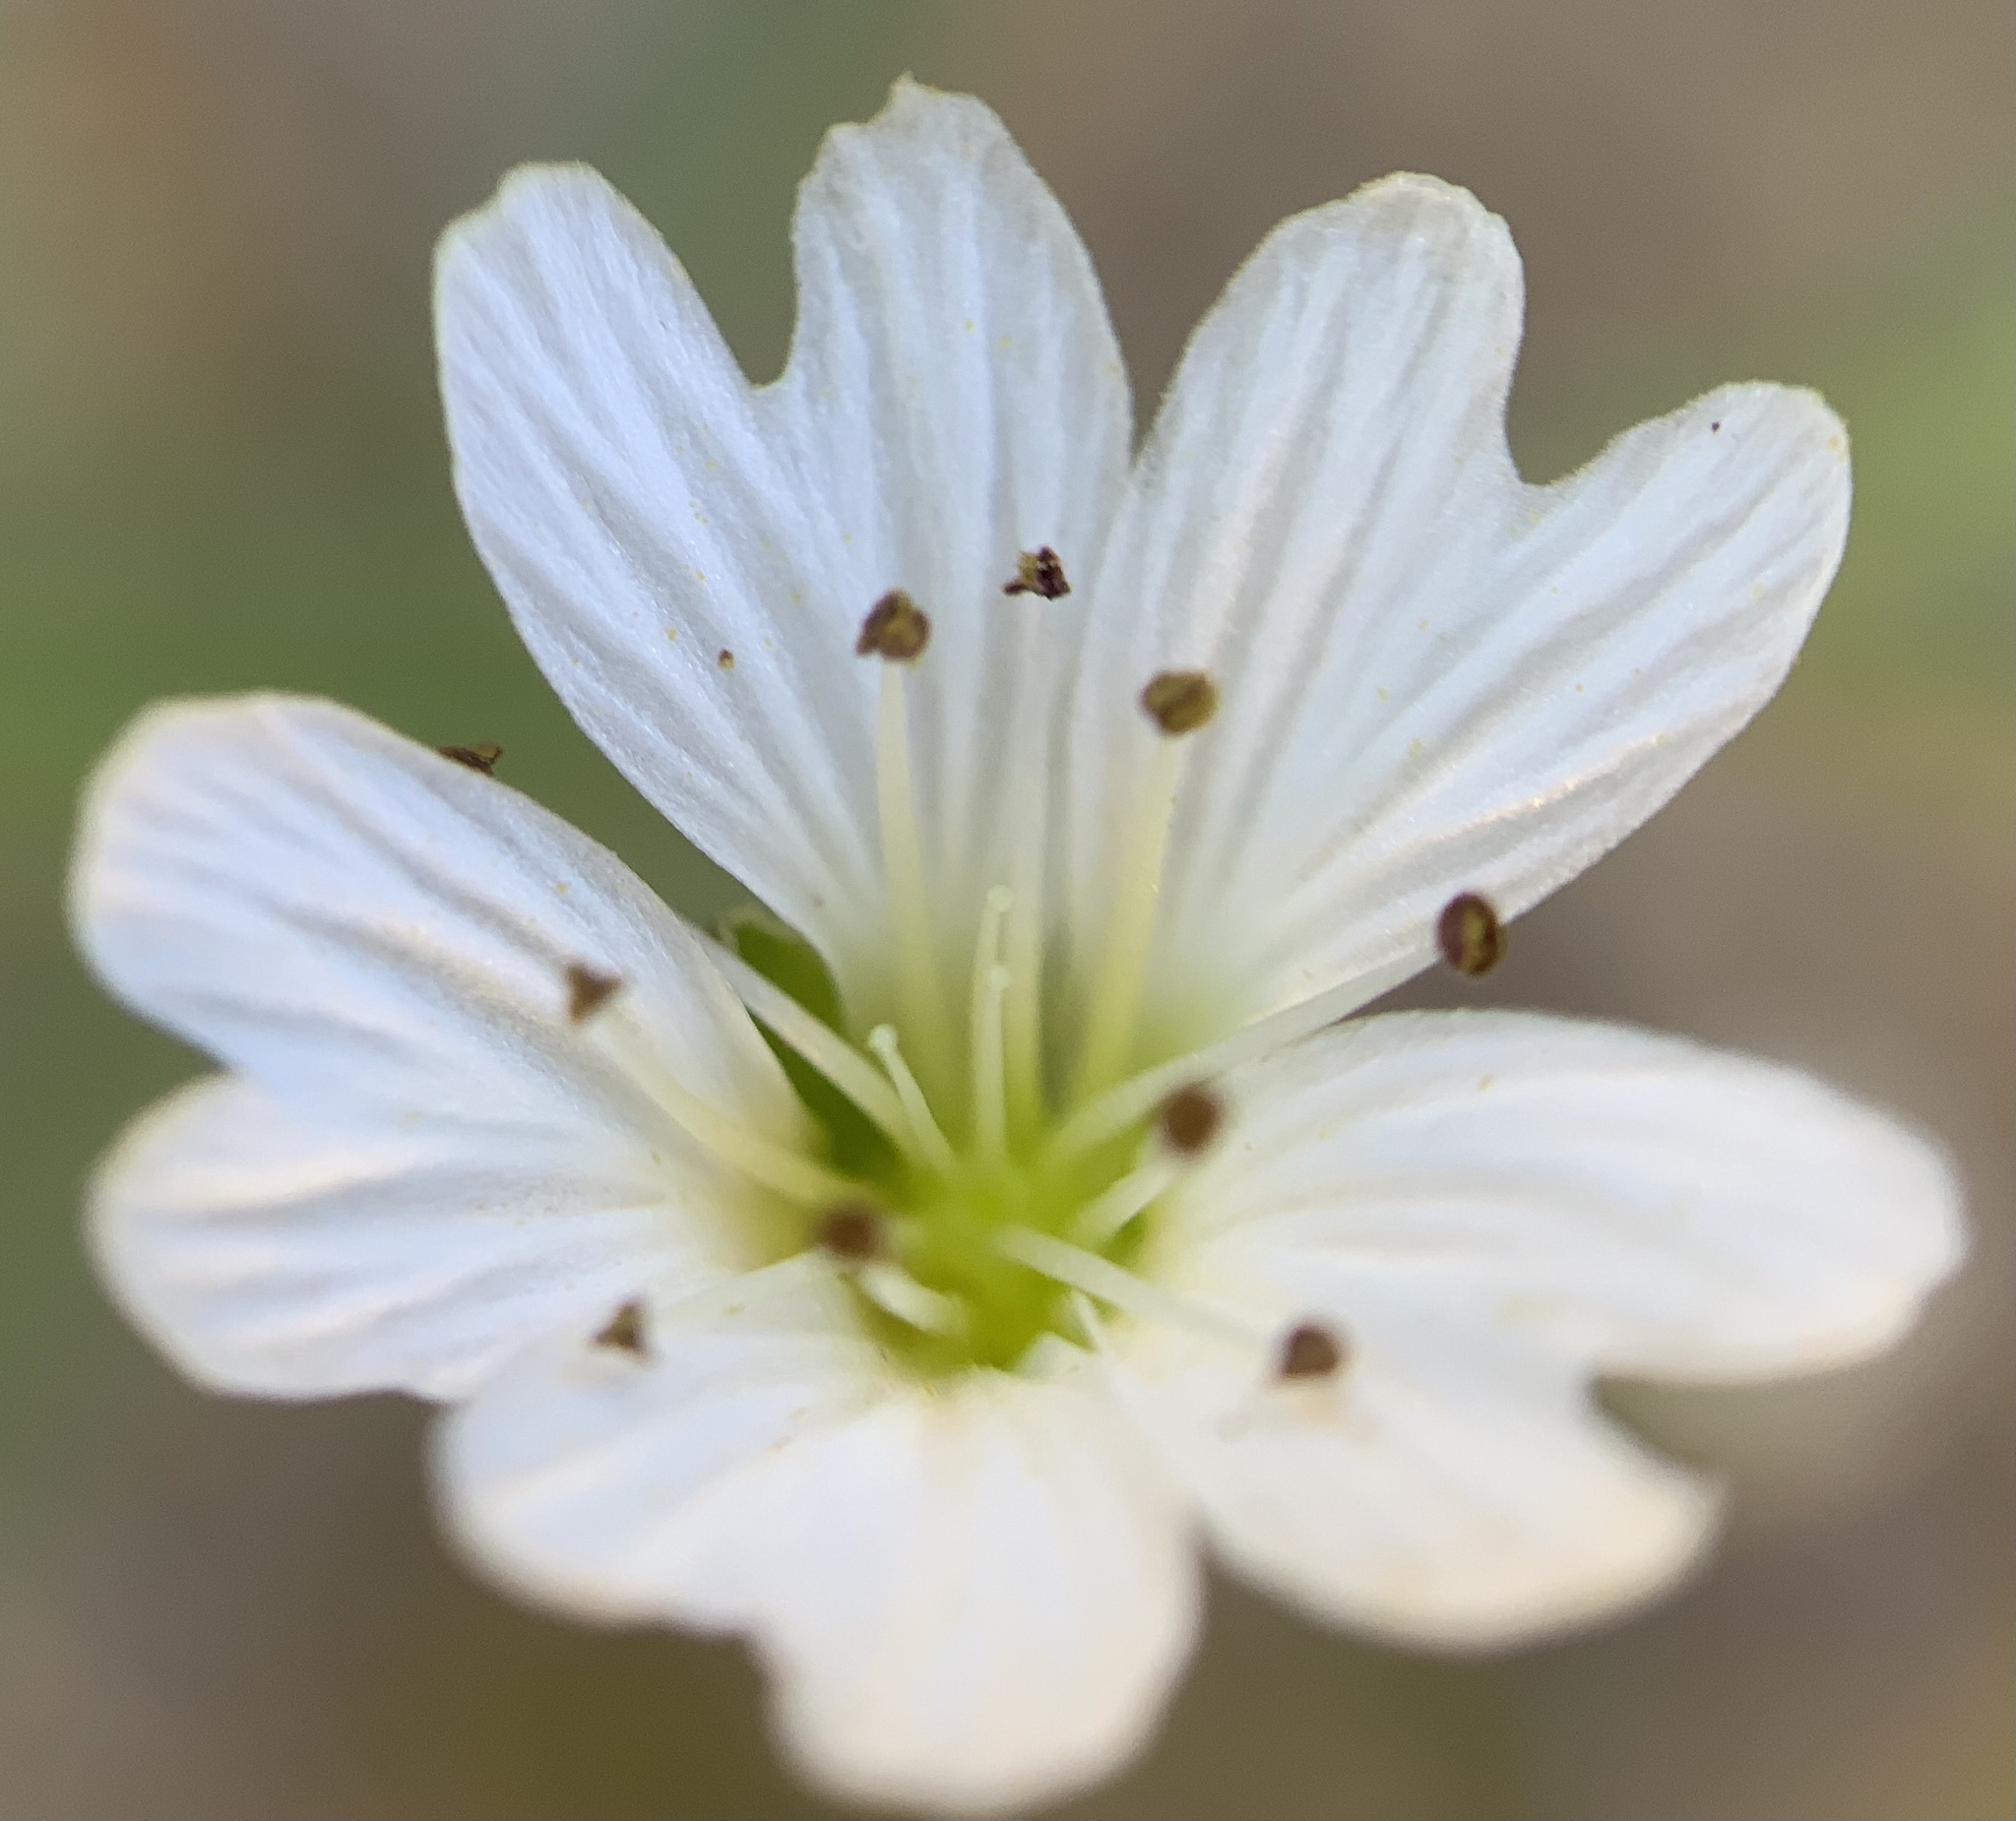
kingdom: Plantae
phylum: Tracheophyta
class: Magnoliopsida
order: Caryophyllales
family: Caryophyllaceae
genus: Schizotechium
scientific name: Schizotechium jamesianum
